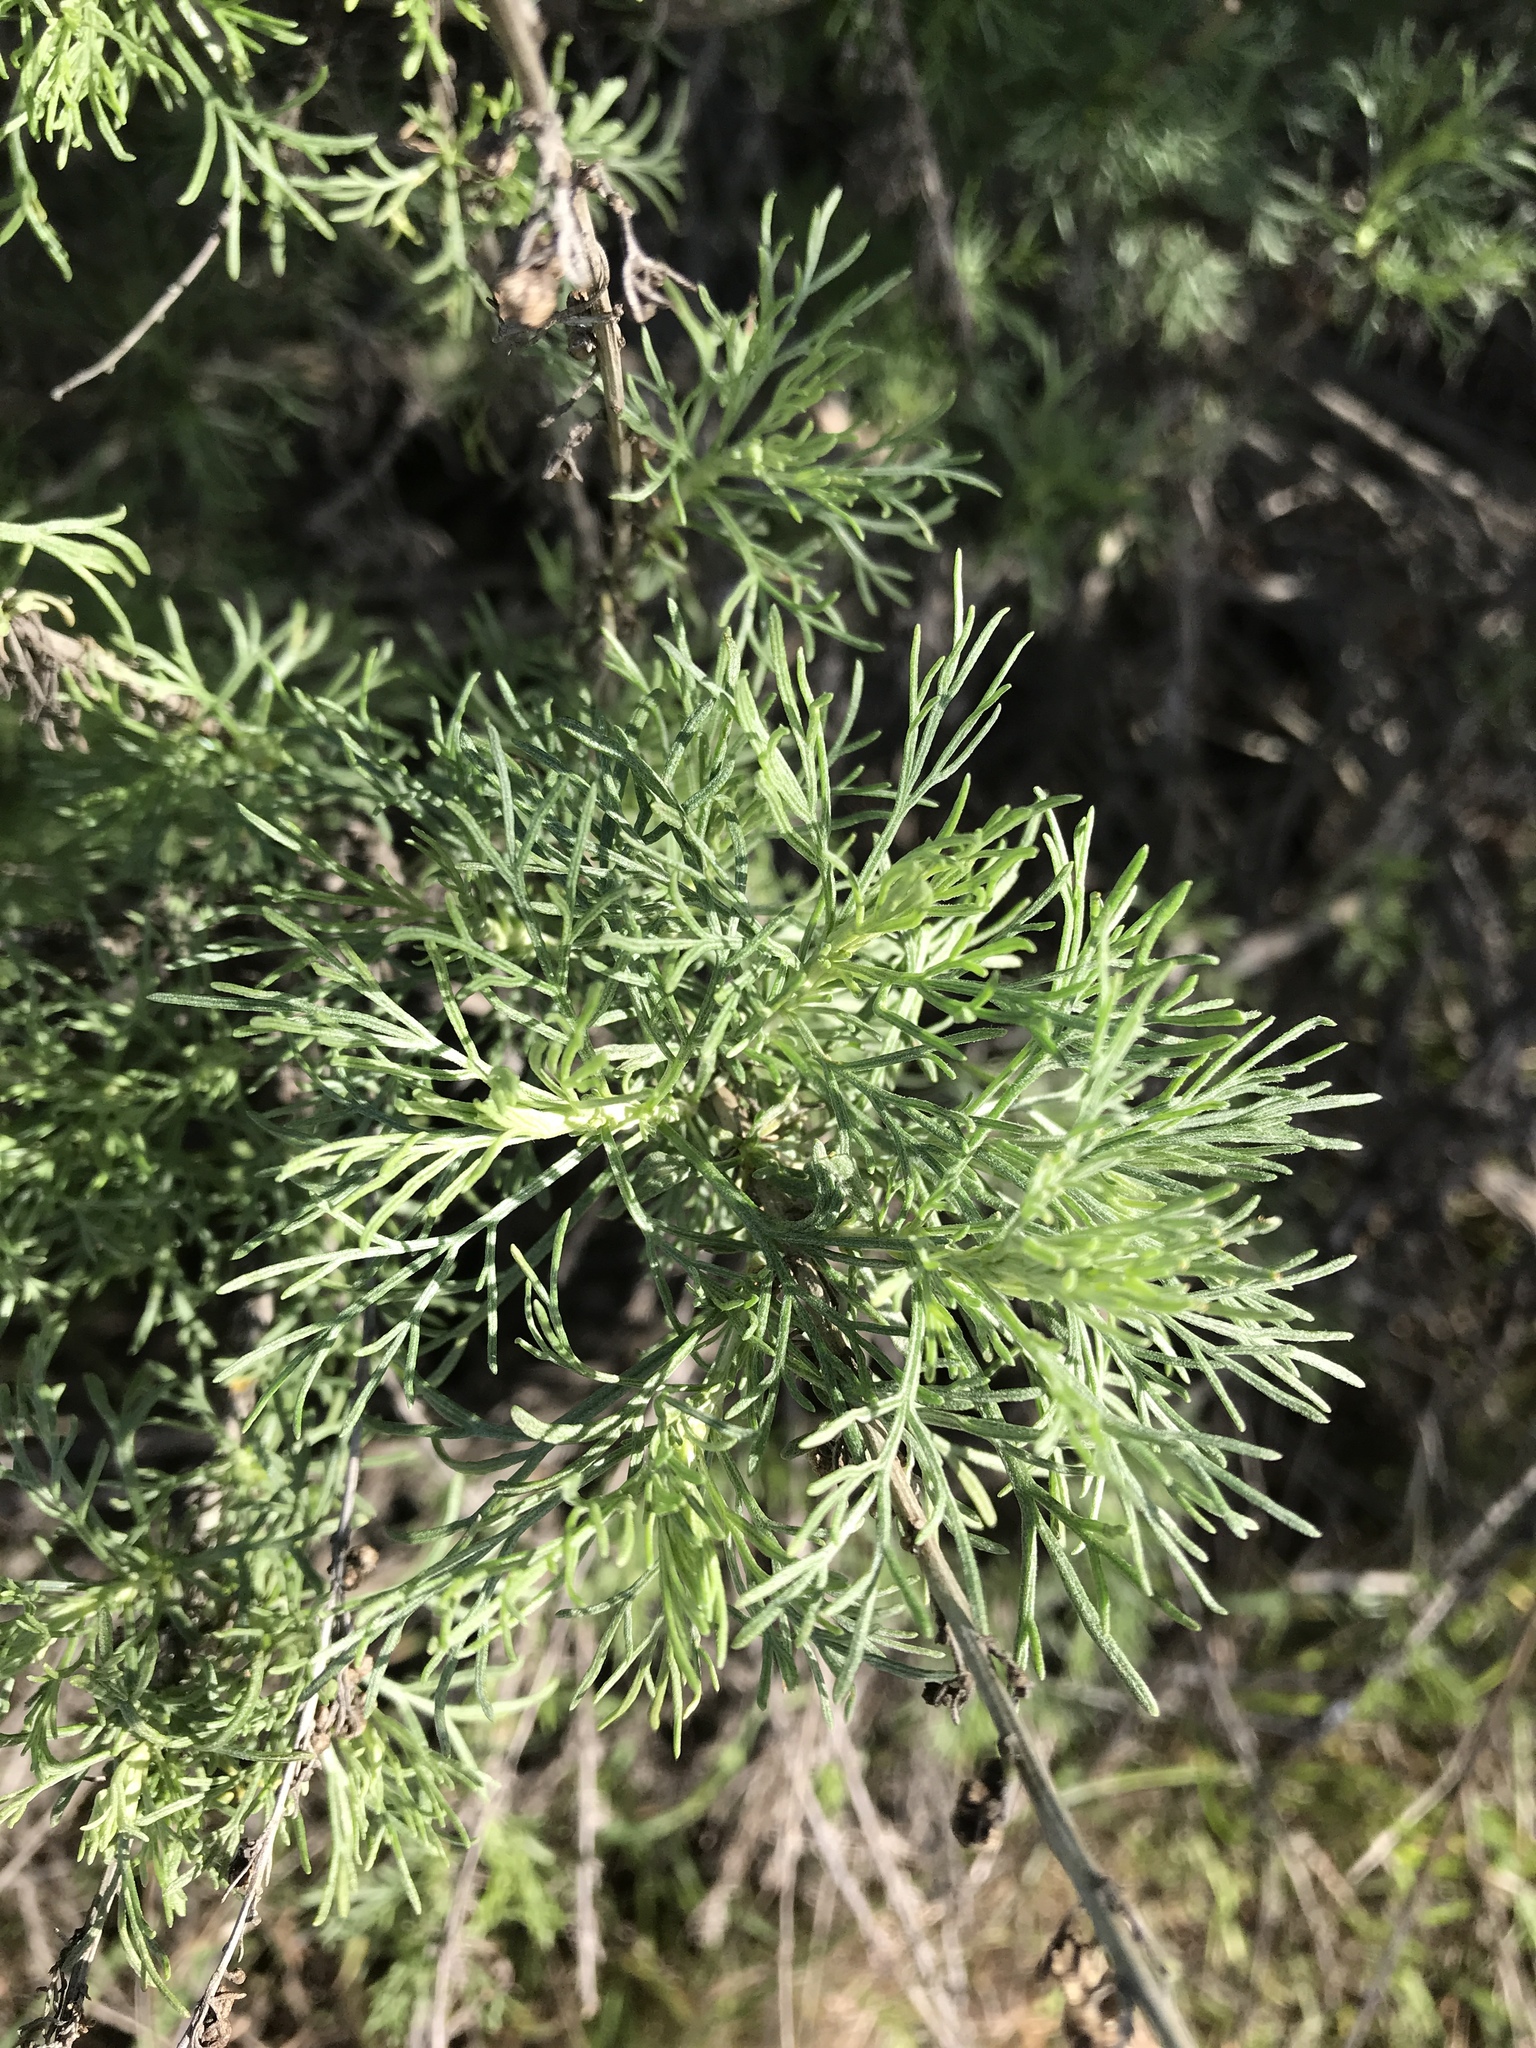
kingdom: Plantae
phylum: Tracheophyta
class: Magnoliopsida
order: Asterales
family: Asteraceae
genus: Artemisia
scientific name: Artemisia californica
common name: California sagebrush
